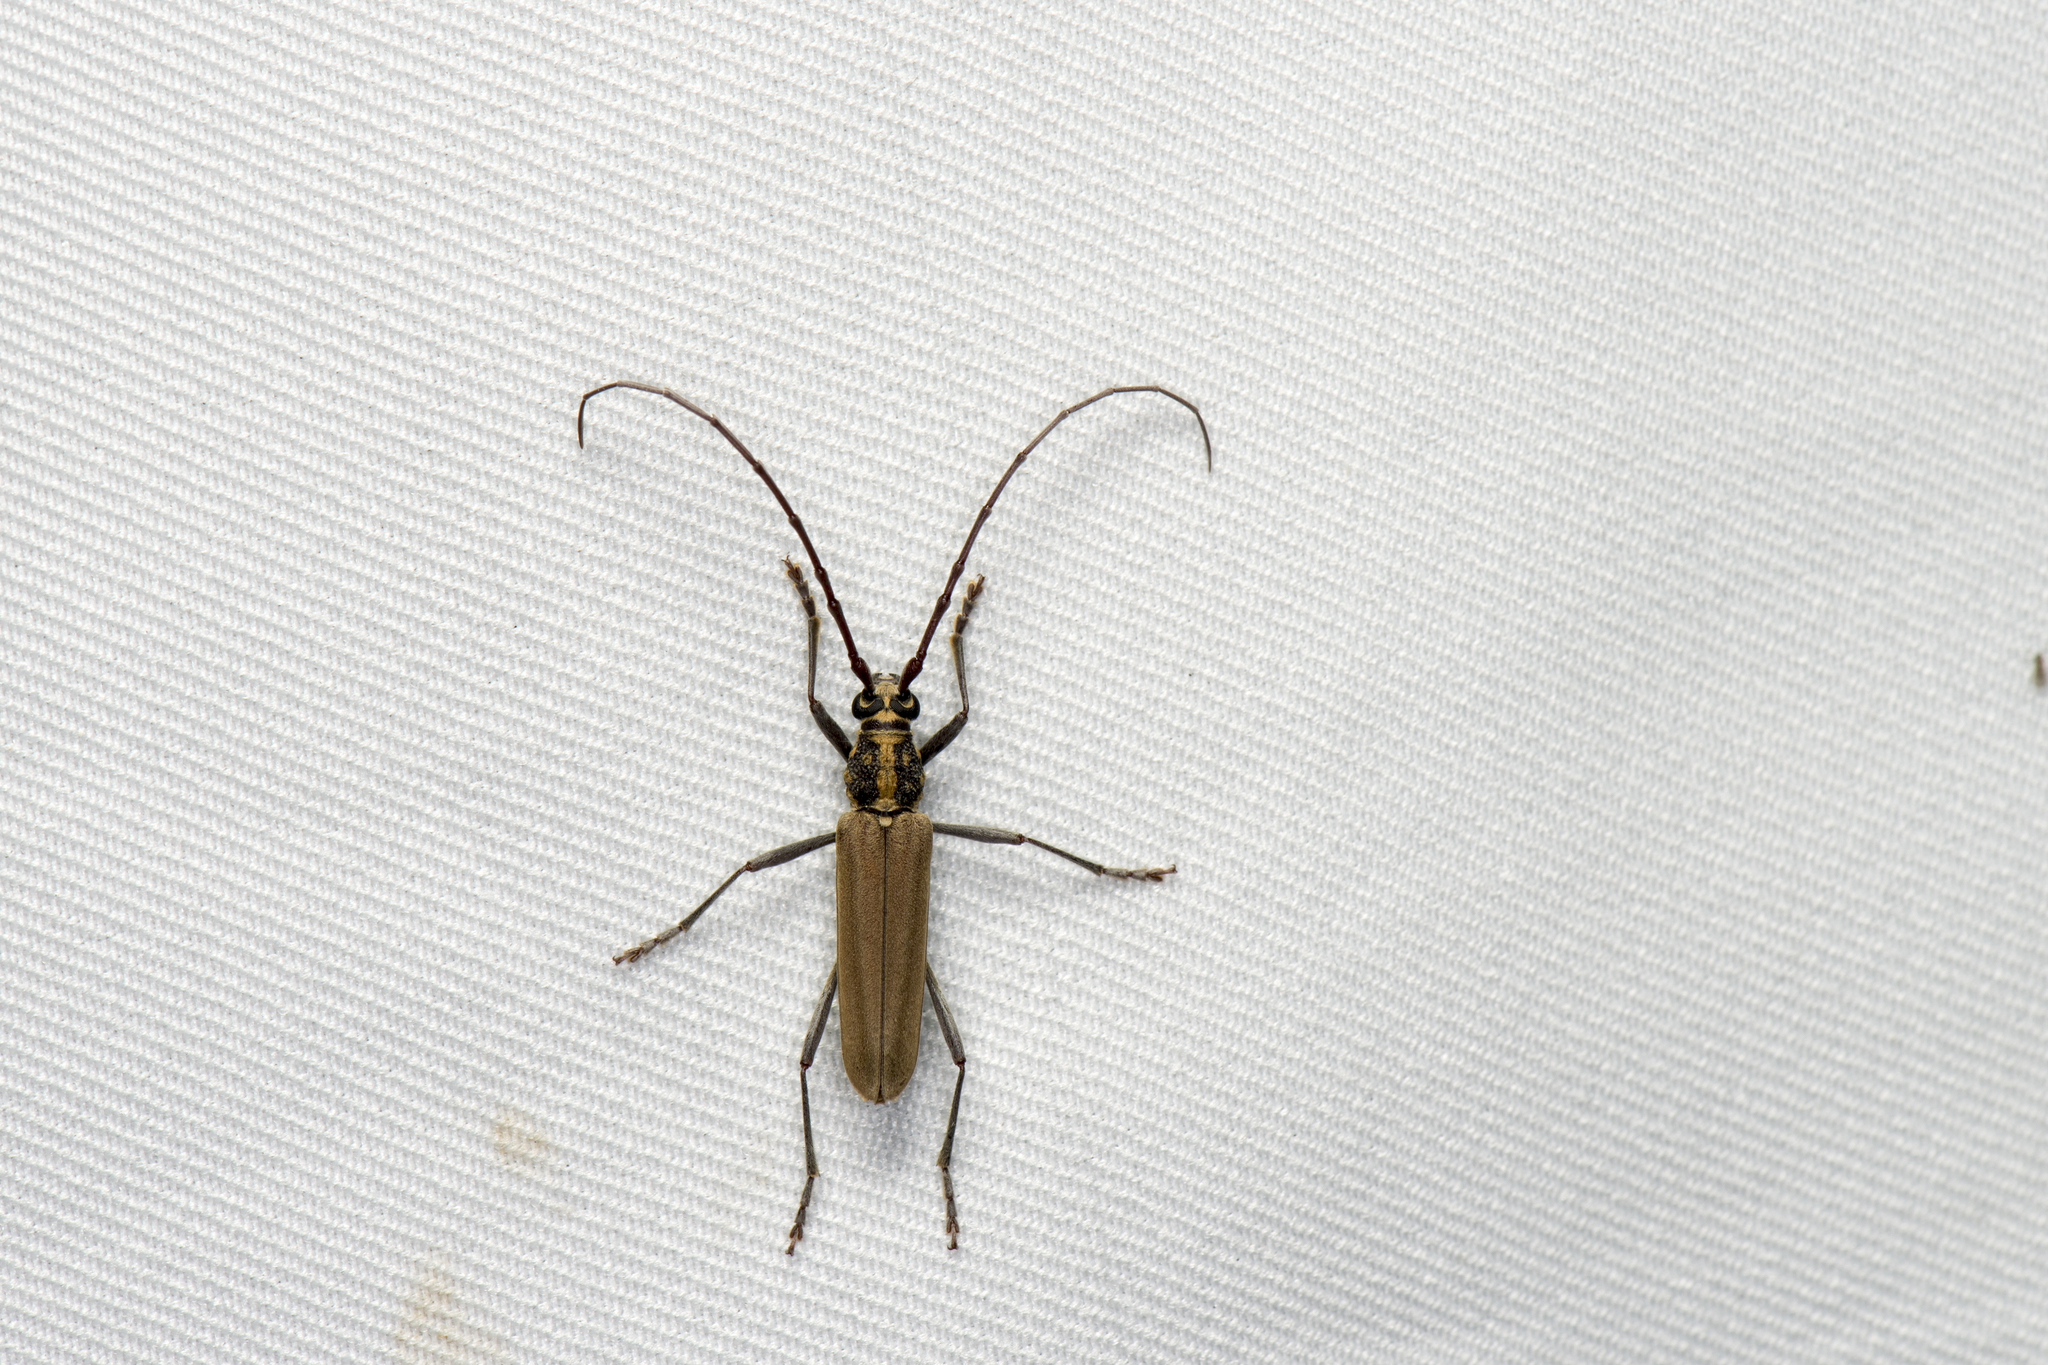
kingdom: Animalia
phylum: Arthropoda
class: Insecta
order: Coleoptera
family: Cerambycidae
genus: Gibbocerambyx
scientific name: Gibbocerambyx maculicollis
